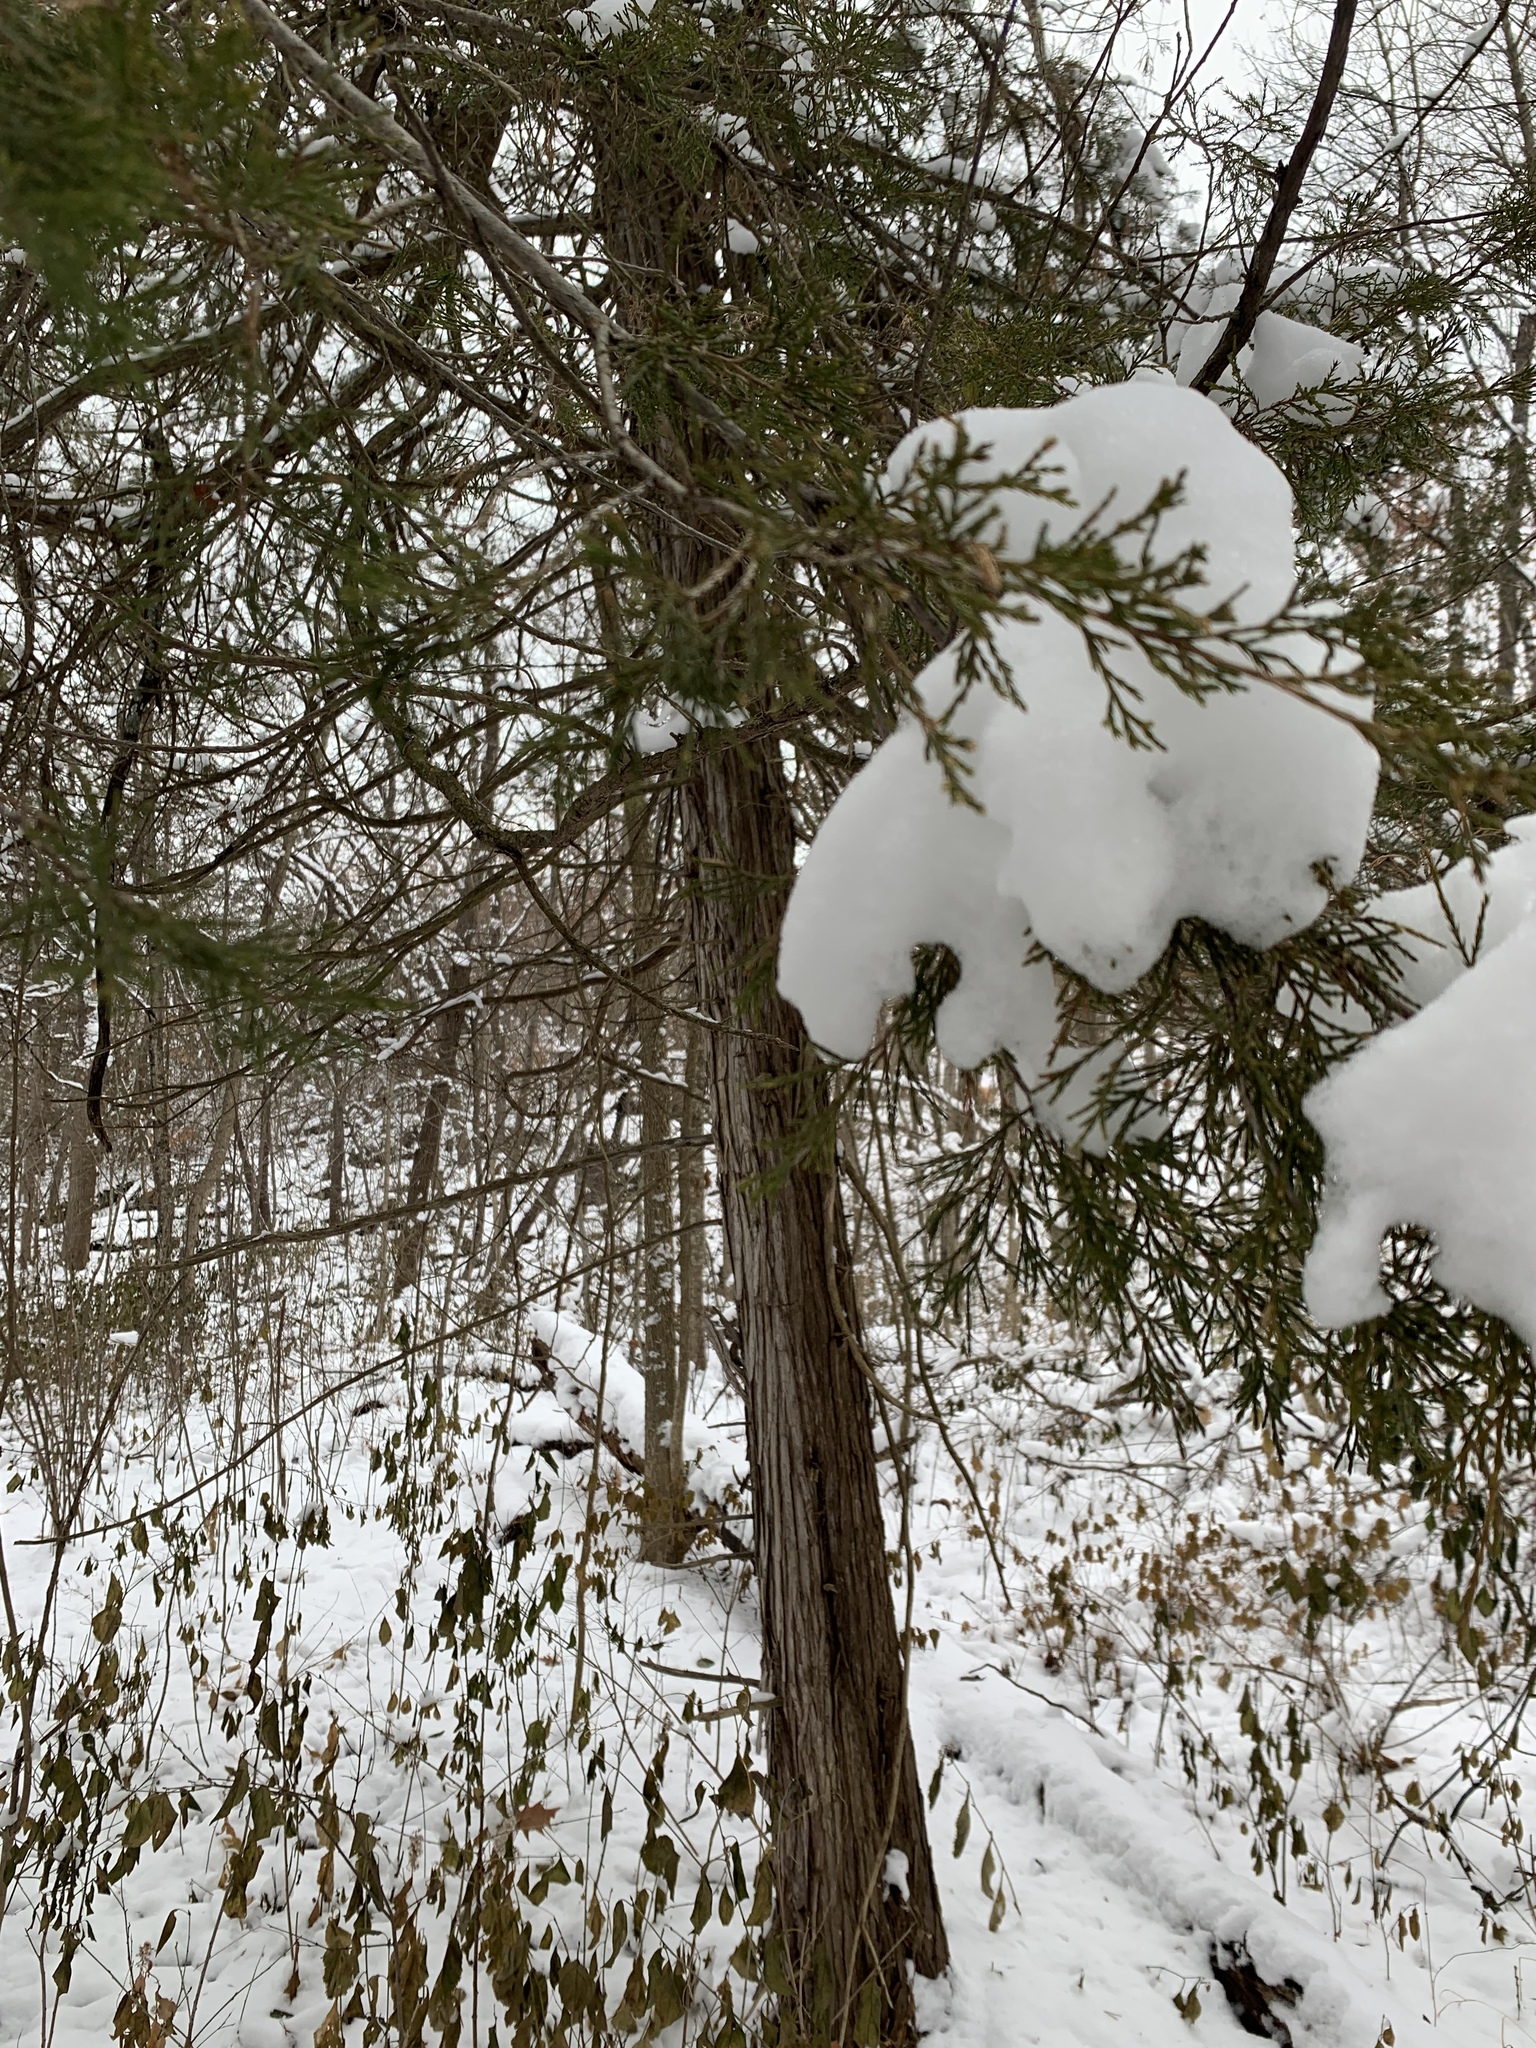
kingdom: Plantae
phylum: Tracheophyta
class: Pinopsida
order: Pinales
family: Cupressaceae
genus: Juniperus
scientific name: Juniperus virginiana
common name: Red juniper
